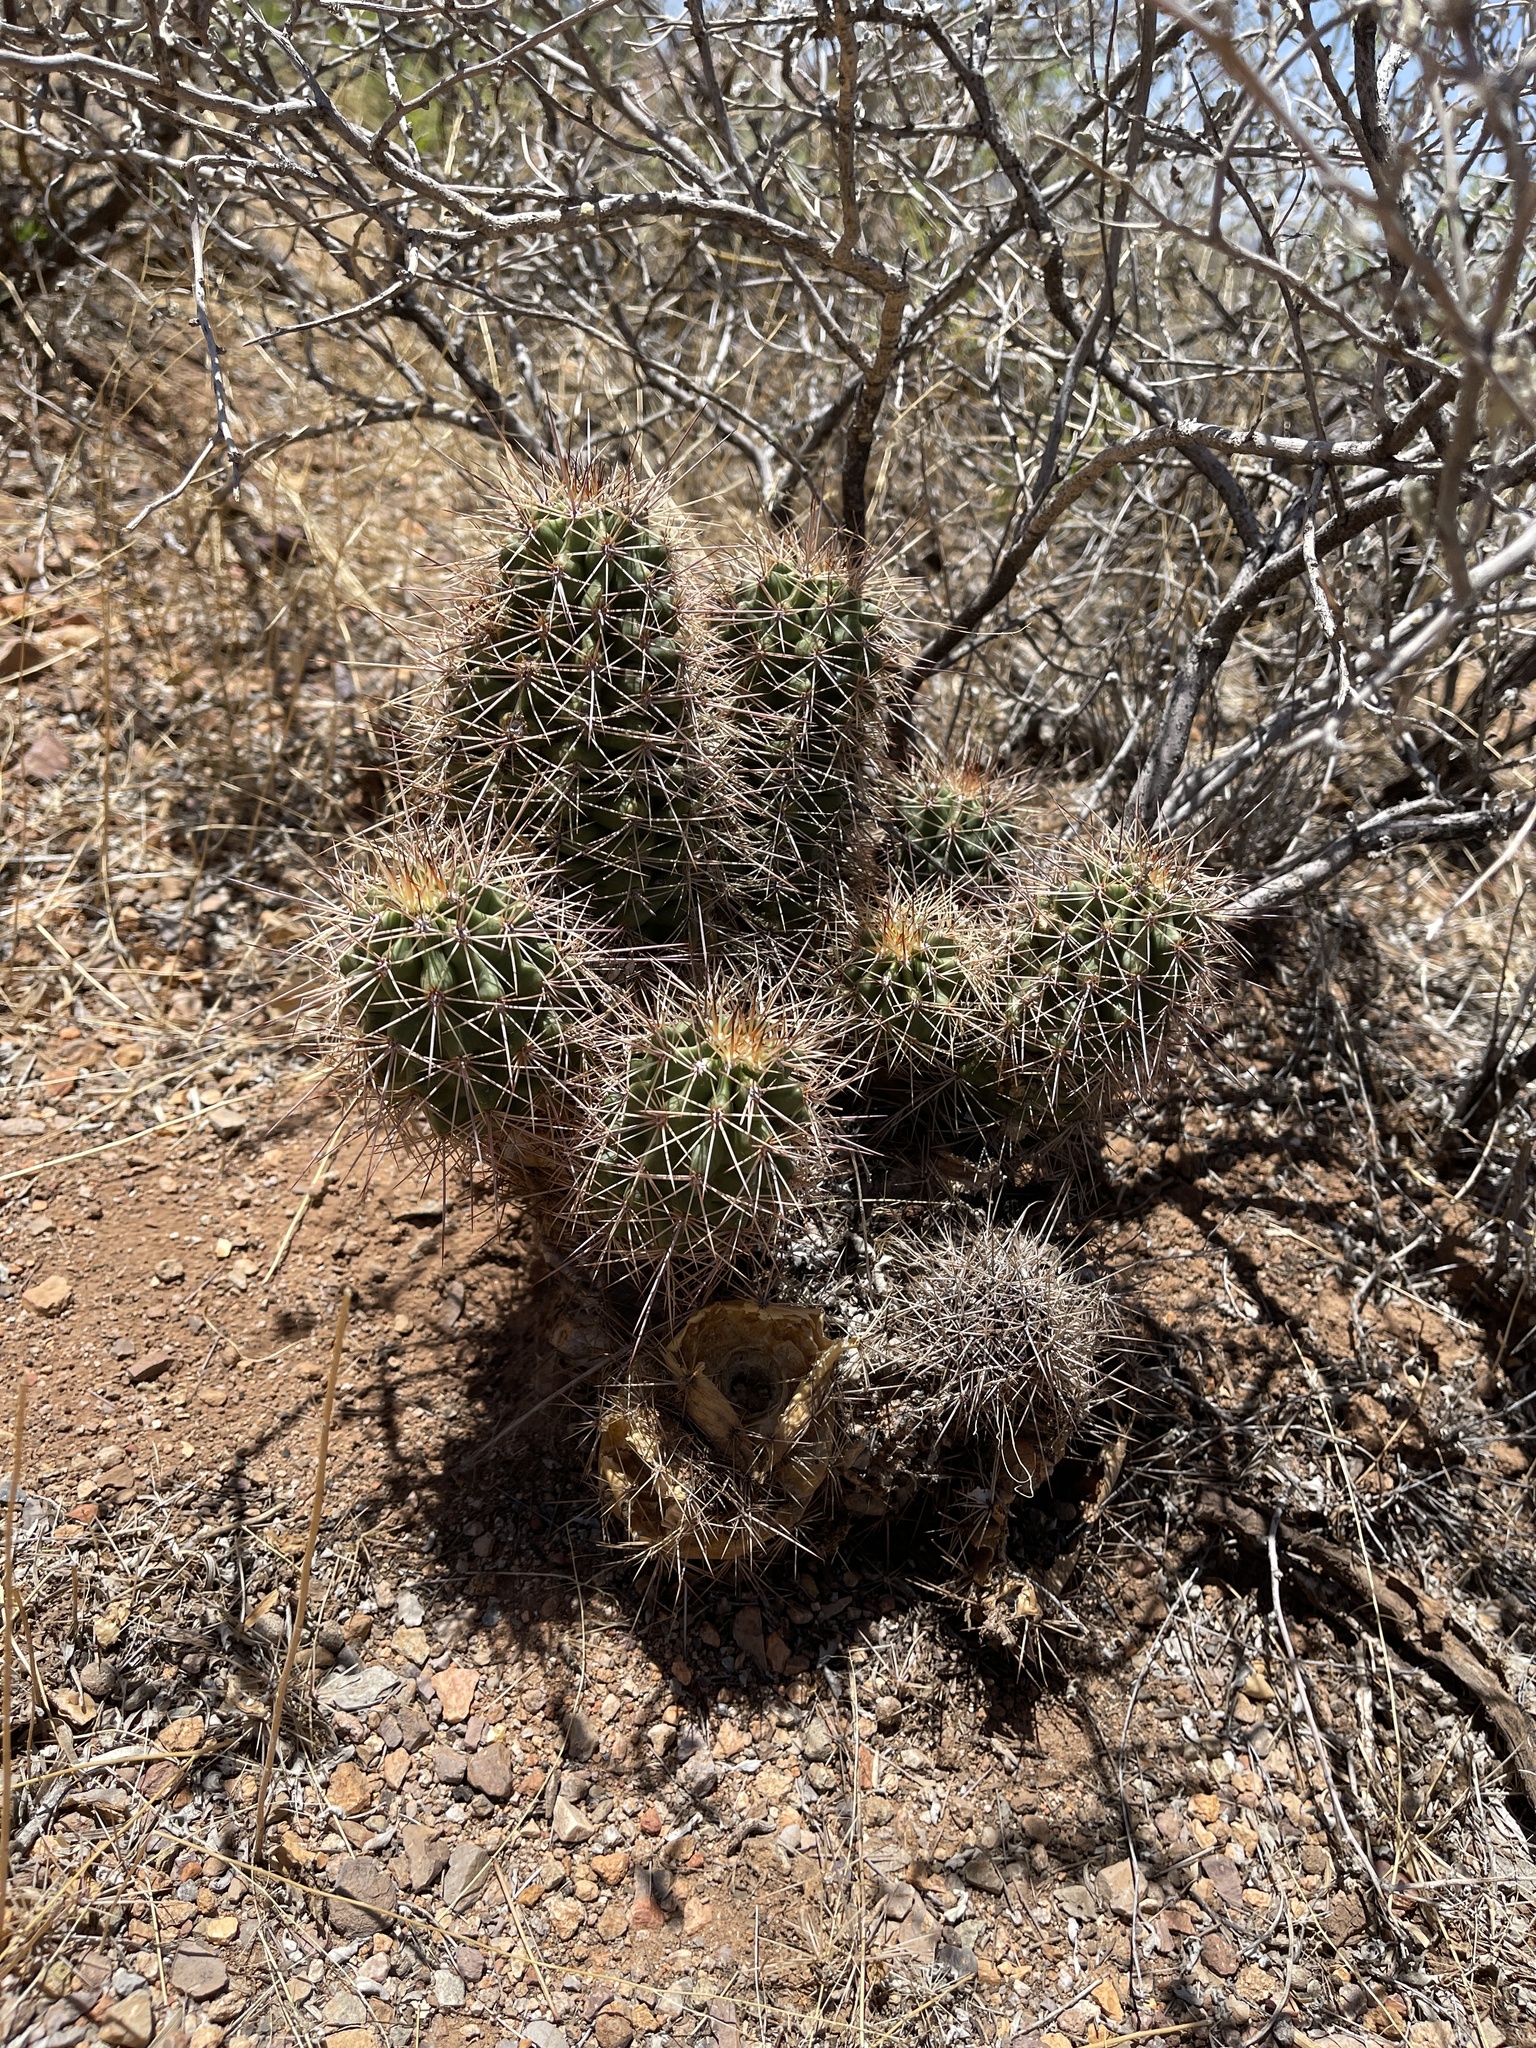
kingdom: Plantae
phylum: Tracheophyta
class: Magnoliopsida
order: Caryophyllales
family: Cactaceae
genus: Echinocereus
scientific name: Echinocereus coccineus
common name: Scarlet hedgehog cactus
